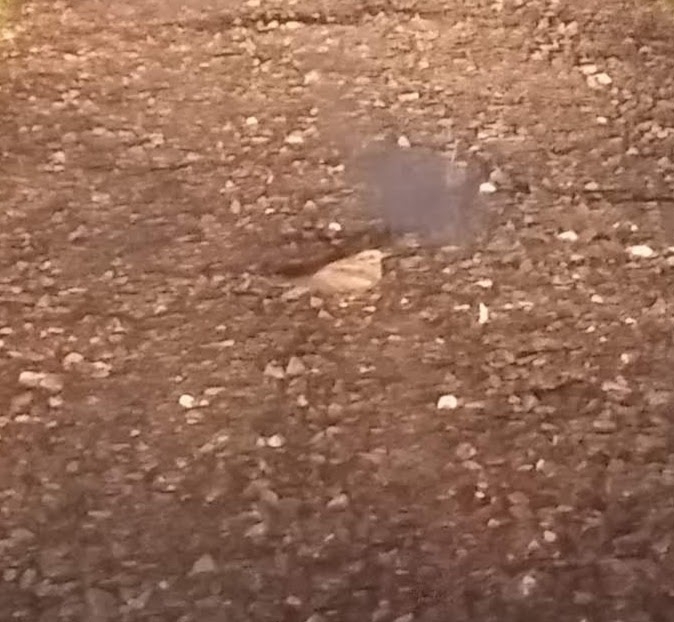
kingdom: Animalia
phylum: Chordata
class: Aves
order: Caprimulgiformes
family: Caprimulgidae
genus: Caprimulgus
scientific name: Caprimulgus europaeus
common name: European nightjar
